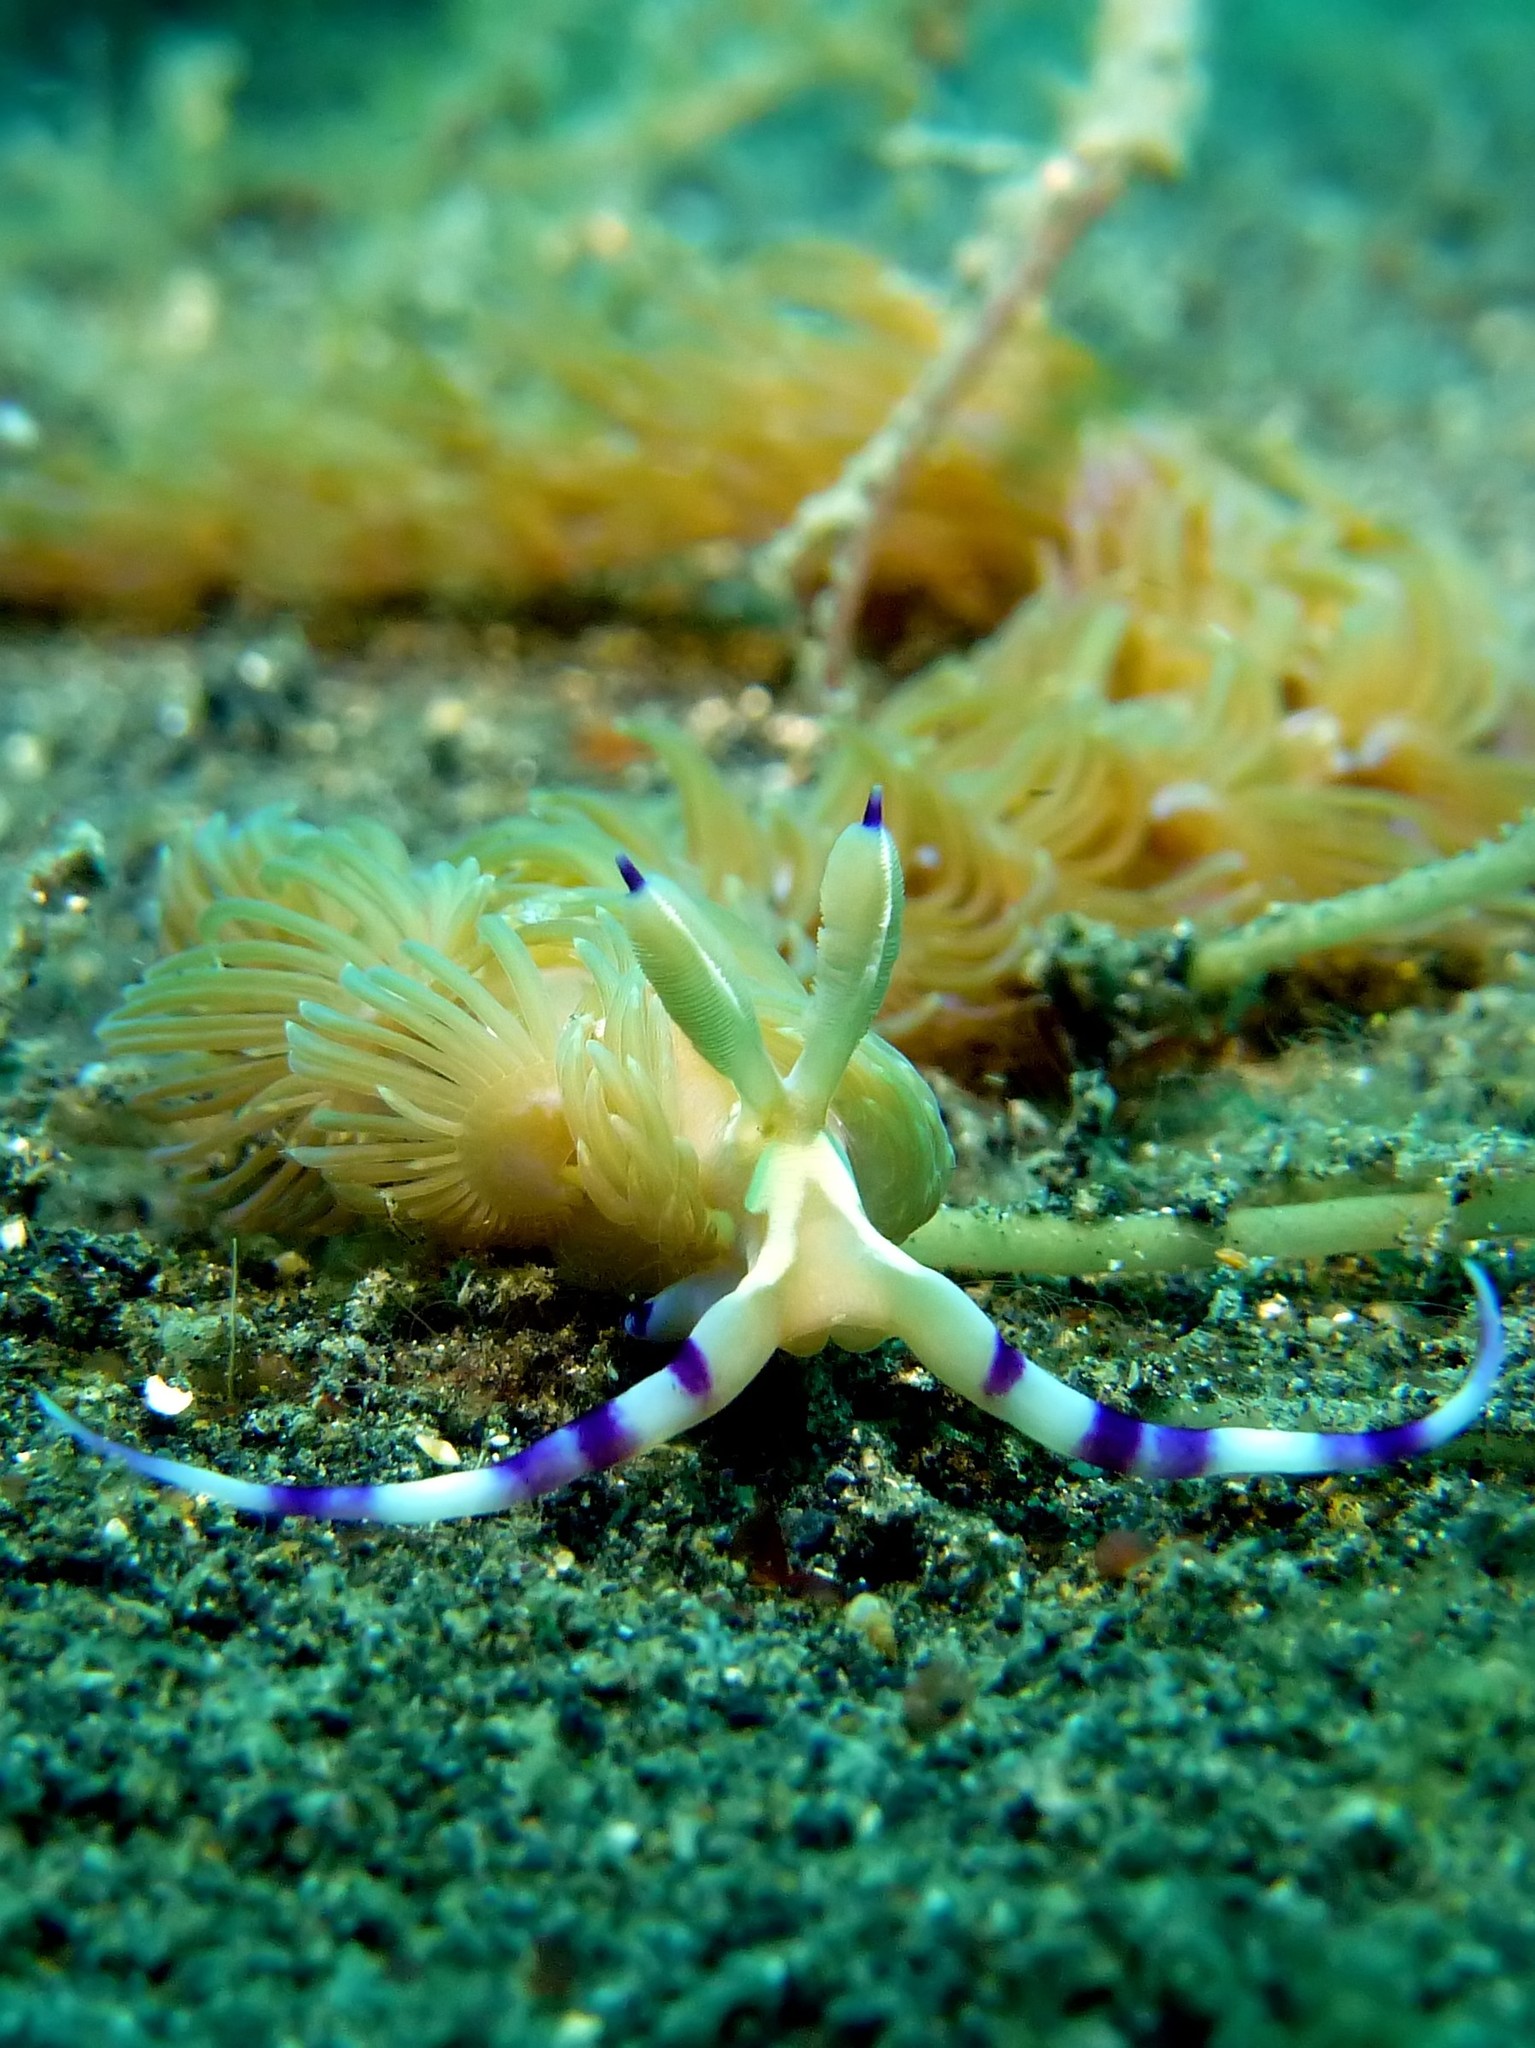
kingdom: Animalia
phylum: Mollusca
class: Gastropoda
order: Nudibranchia
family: Facelinidae
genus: Pteraeolidia
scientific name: Pteraeolidia semperi
